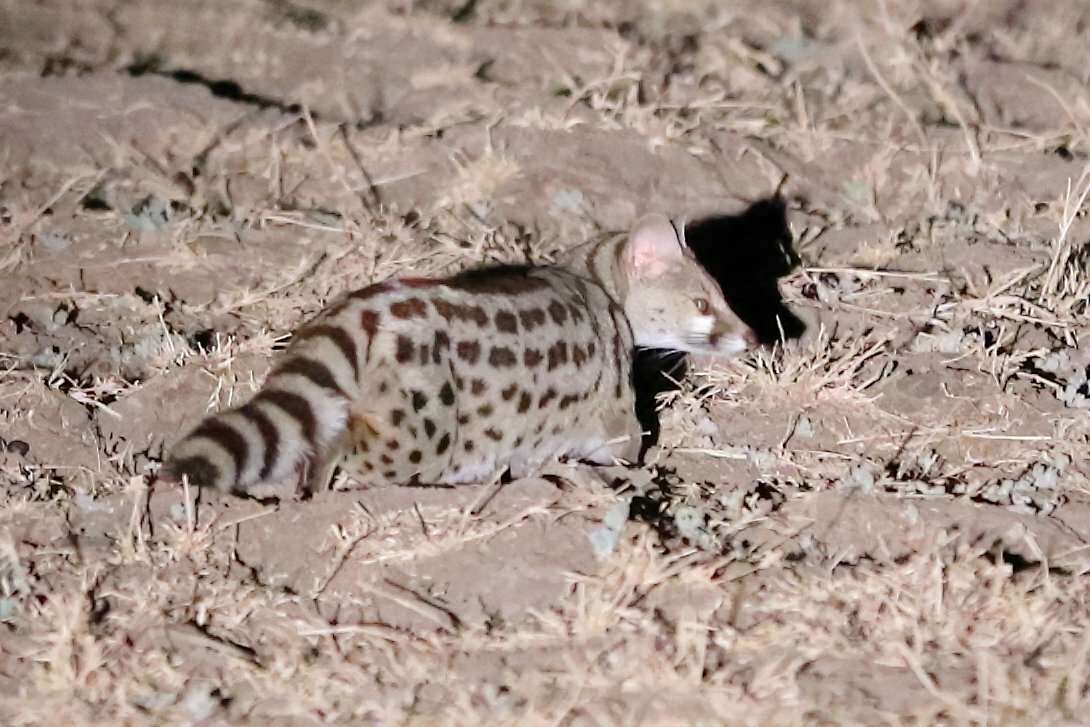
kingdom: Animalia
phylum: Chordata
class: Mammalia
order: Carnivora
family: Viverridae
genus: Genetta
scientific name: Genetta maculata
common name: Rusty-spotted genet
